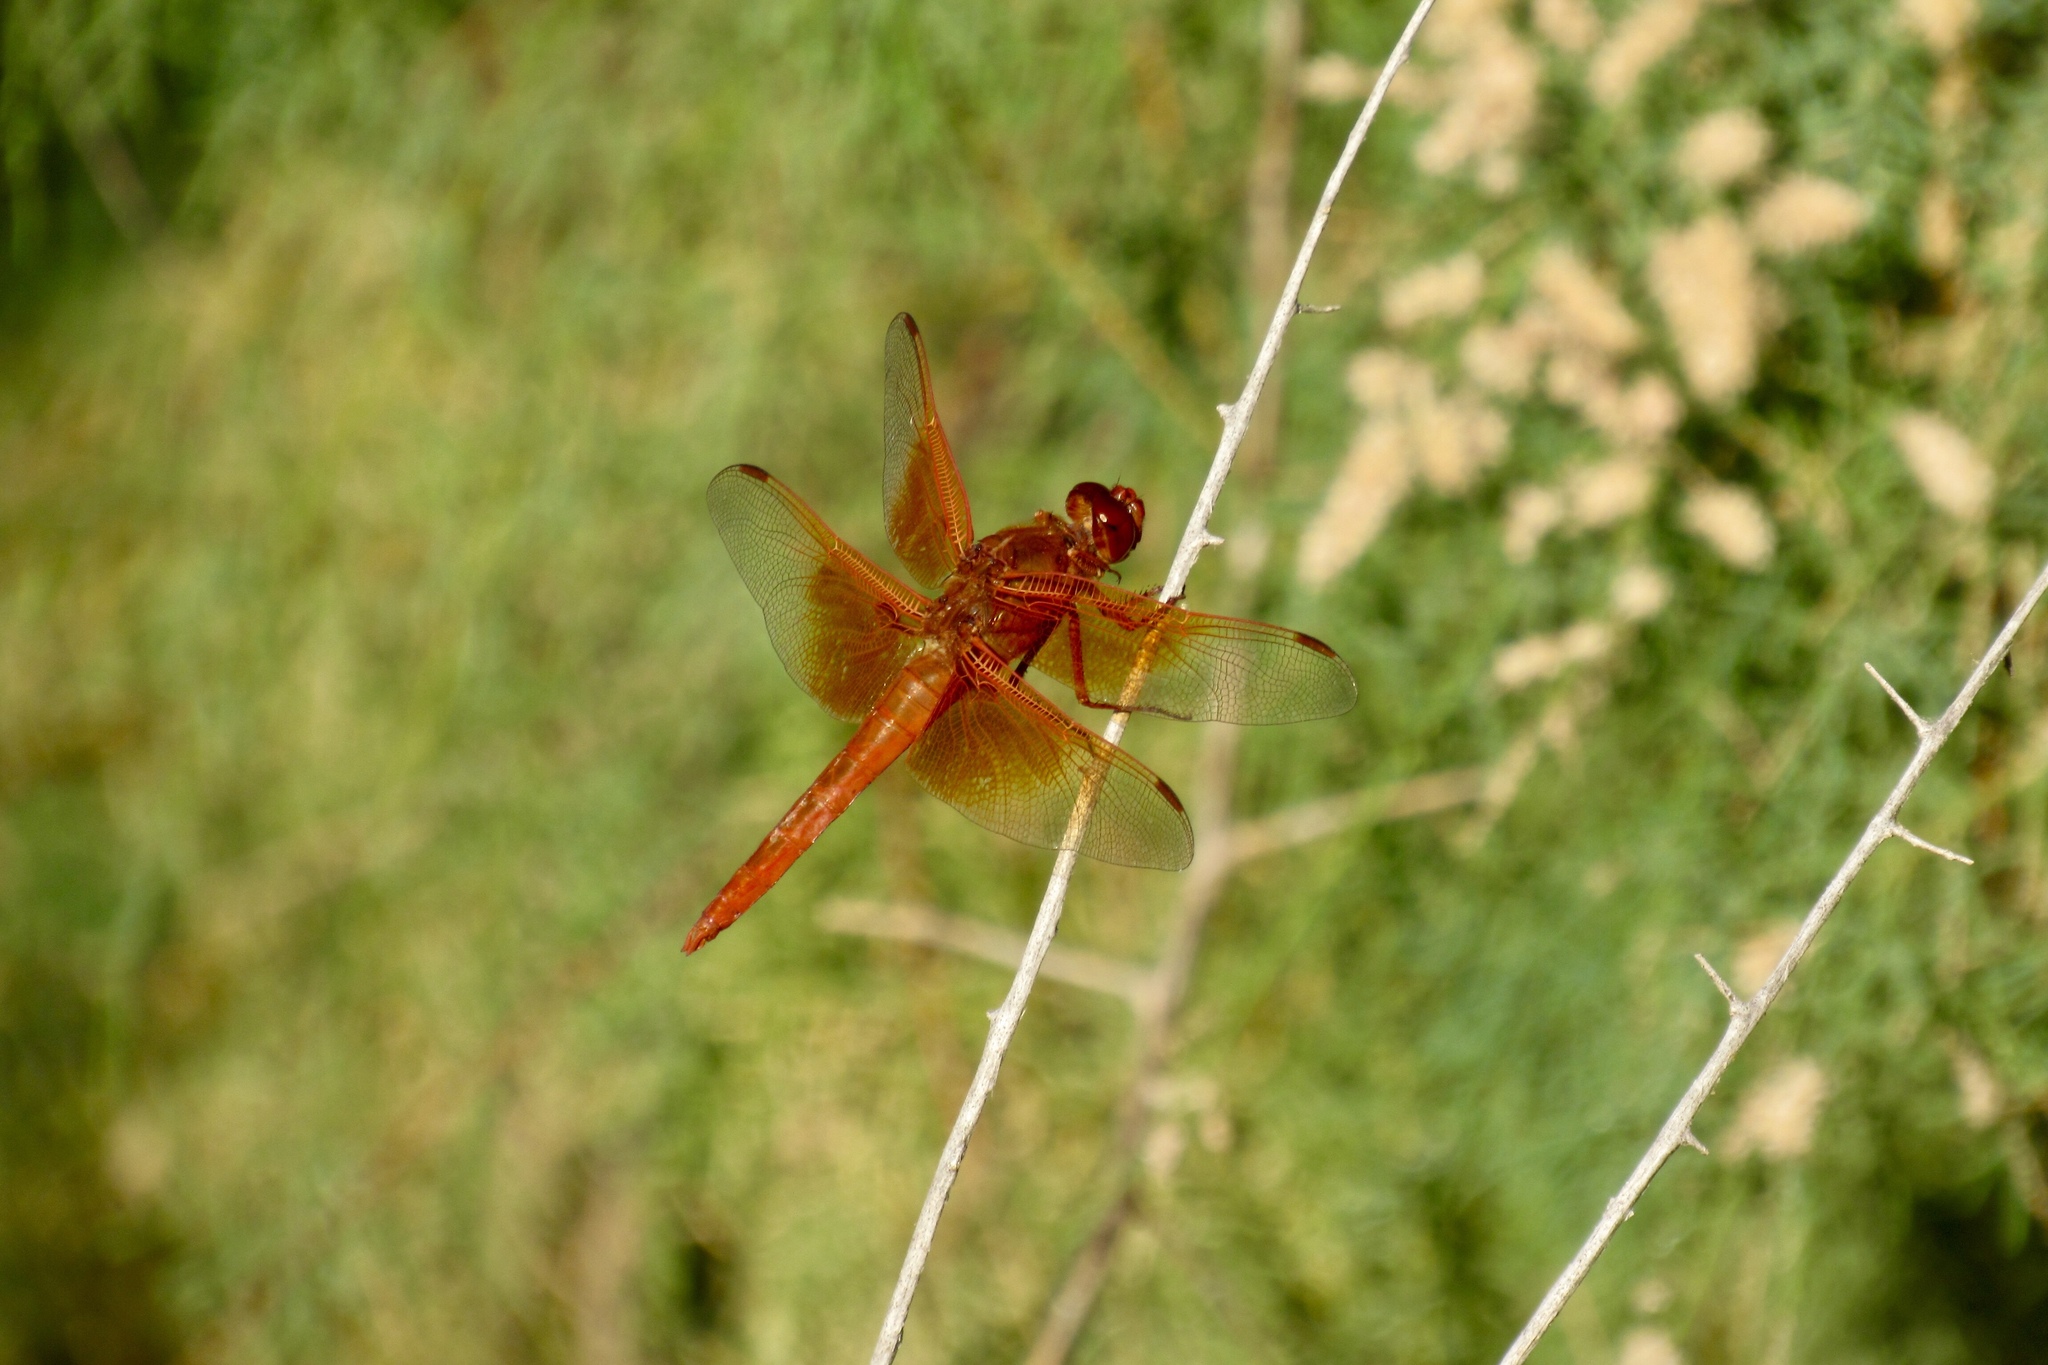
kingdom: Animalia
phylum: Arthropoda
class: Insecta
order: Odonata
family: Libellulidae
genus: Libellula
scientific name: Libellula saturata
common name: Flame skimmer
